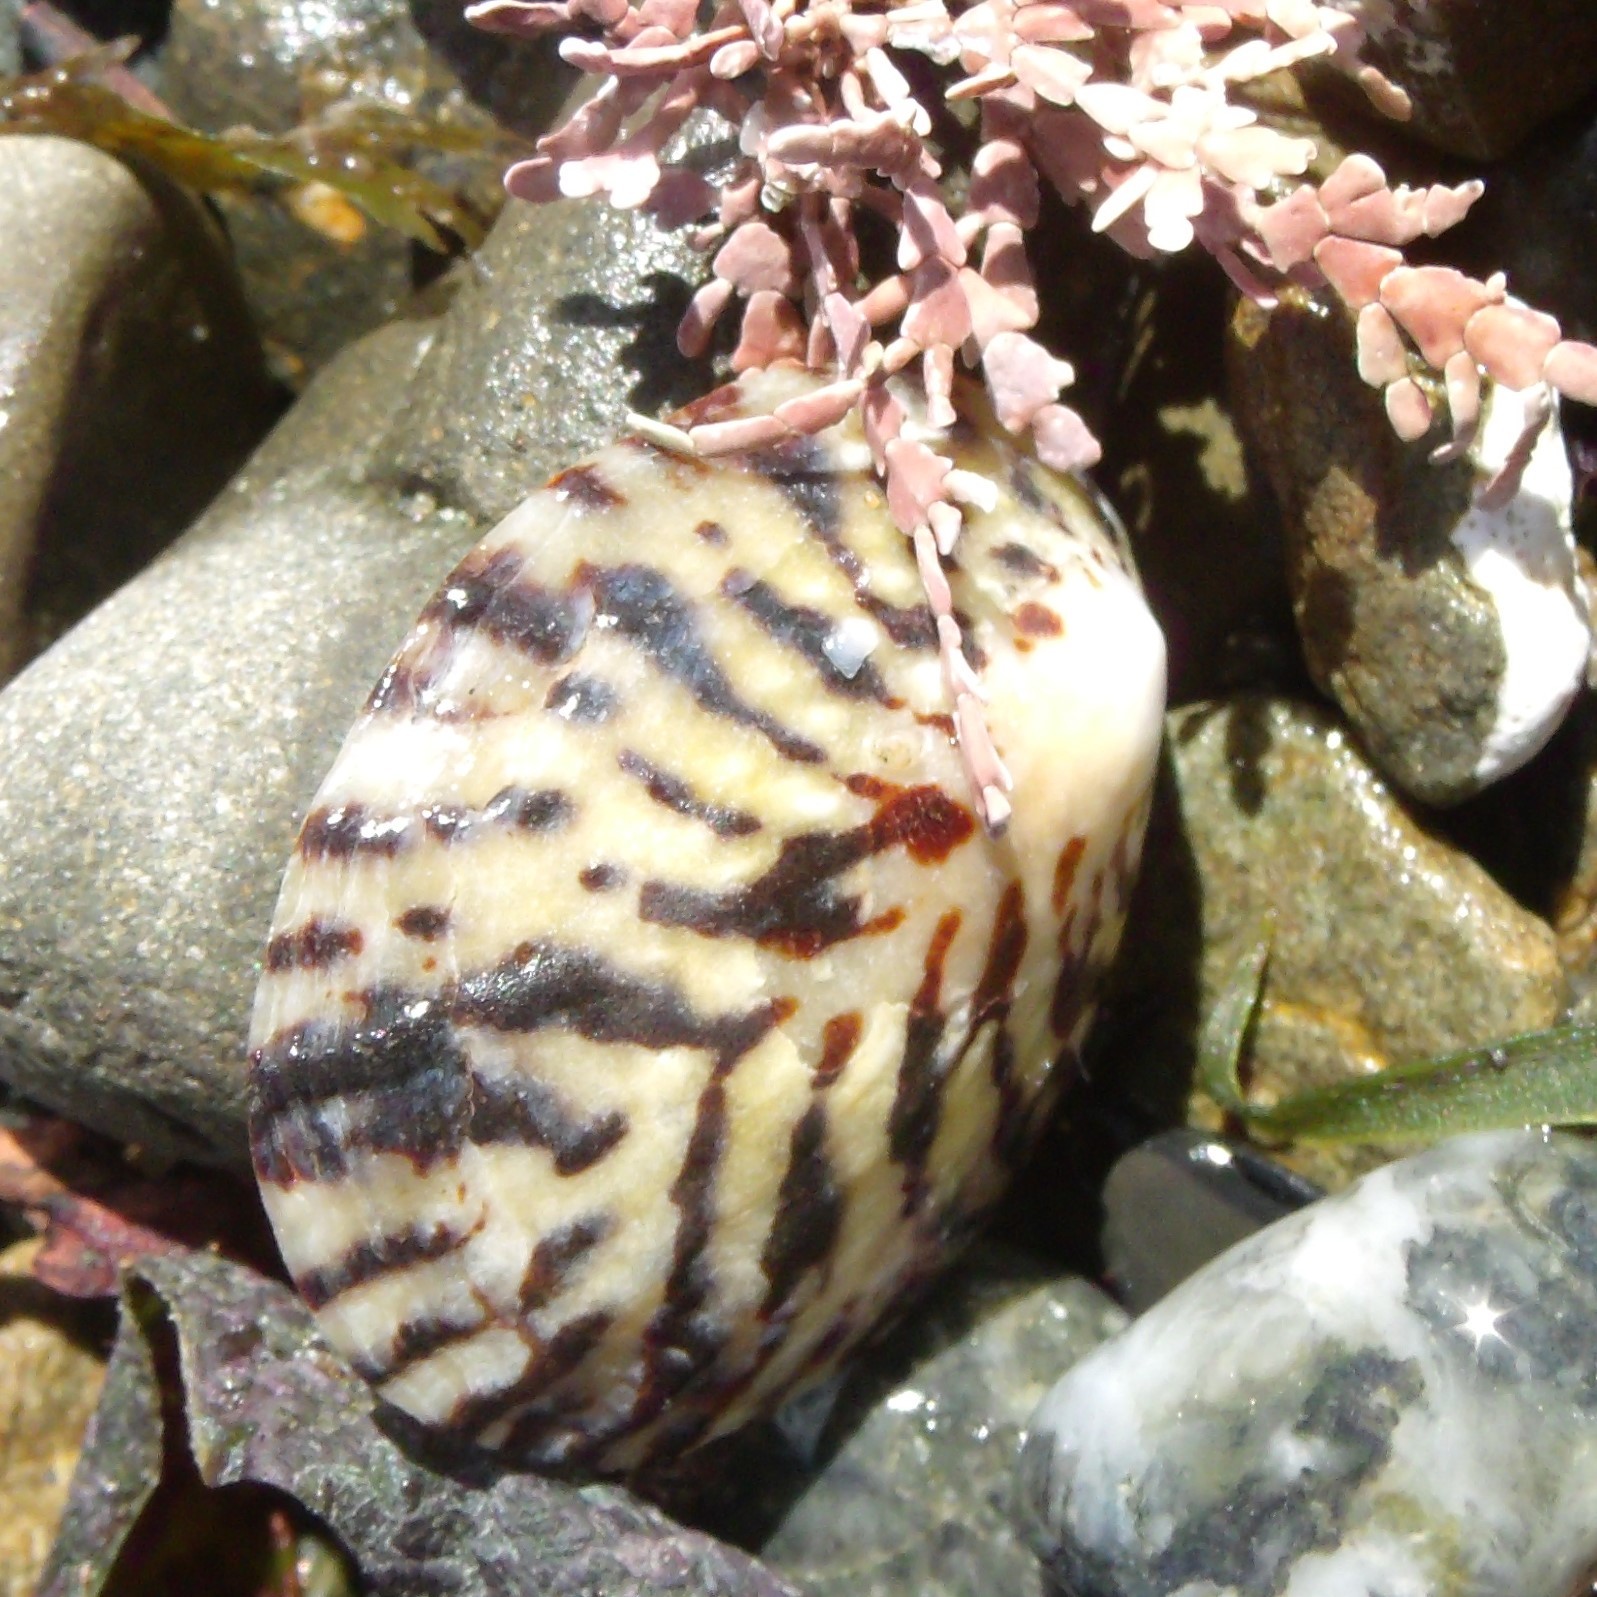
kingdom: Animalia
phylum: Mollusca
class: Gastropoda
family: Nacellidae
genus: Cellana
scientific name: Cellana radians
